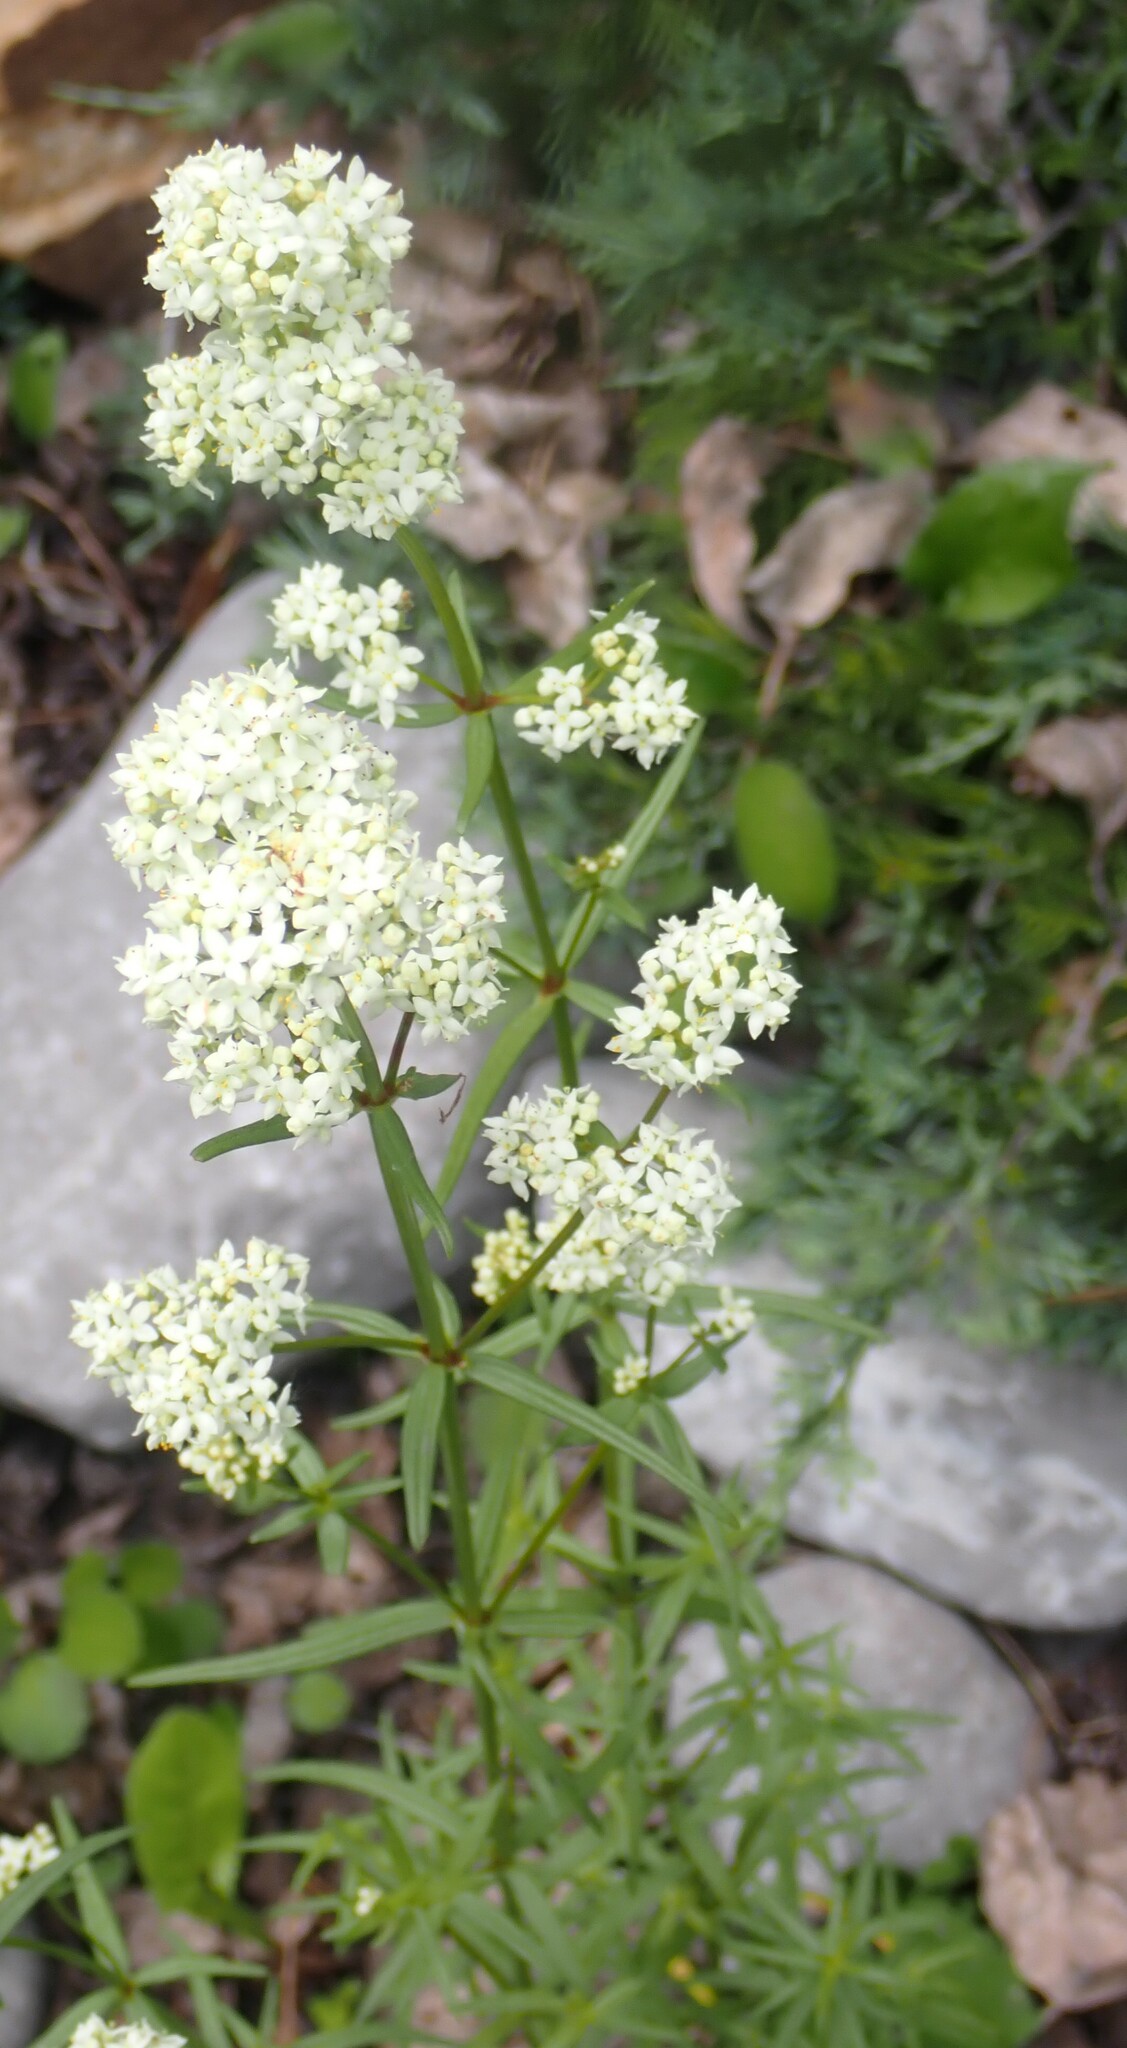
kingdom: Plantae
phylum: Tracheophyta
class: Magnoliopsida
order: Gentianales
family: Rubiaceae
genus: Galium
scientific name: Galium boreale
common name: Northern bedstraw
